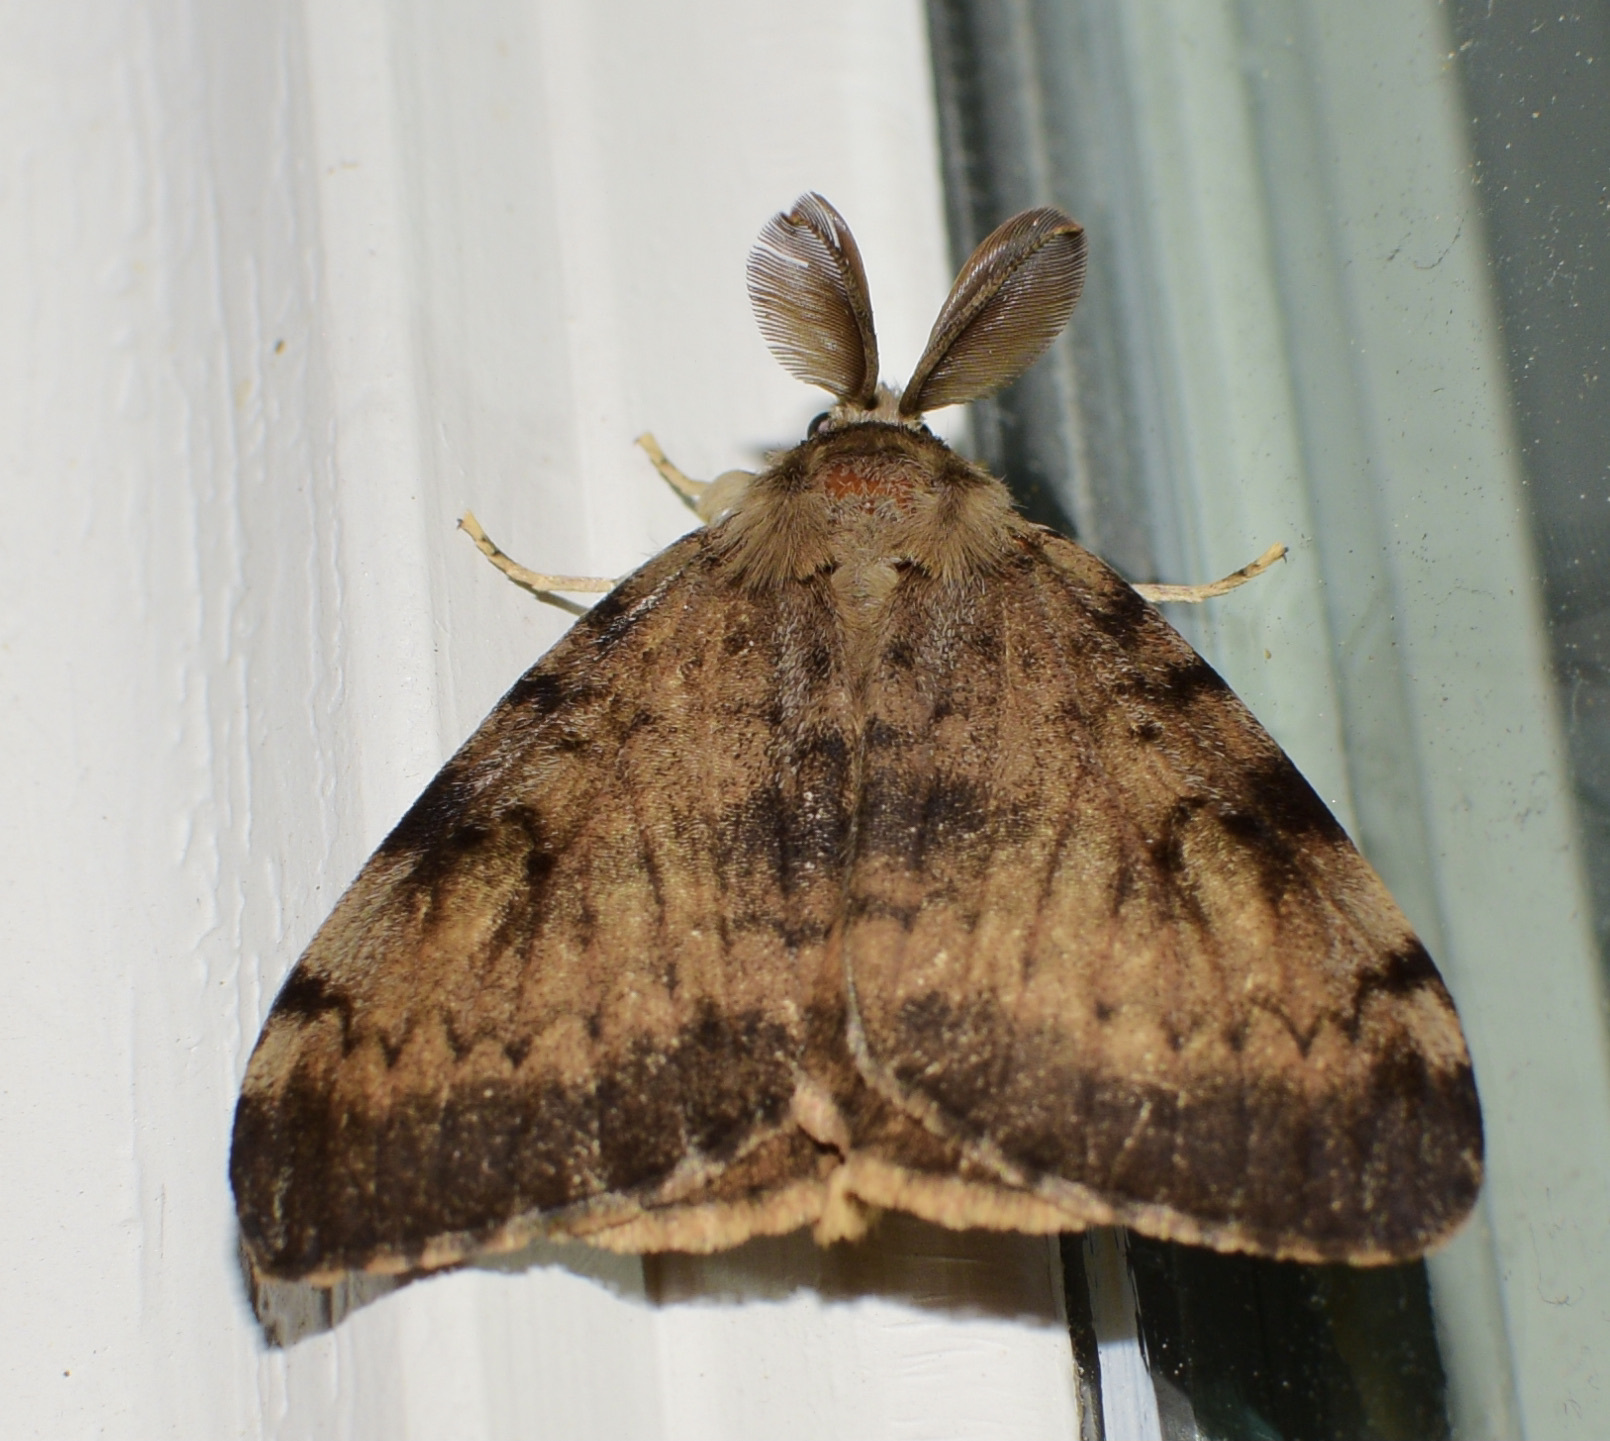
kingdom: Animalia
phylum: Arthropoda
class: Insecta
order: Lepidoptera
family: Erebidae
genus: Lymantria
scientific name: Lymantria dispar
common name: Gypsy moth
